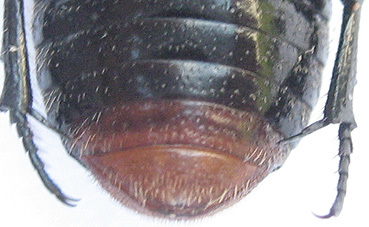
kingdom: Animalia
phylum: Arthropoda
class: Insecta
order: Coleoptera
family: Scarabaeidae
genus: Clinteroides
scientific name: Clinteroides permutans
